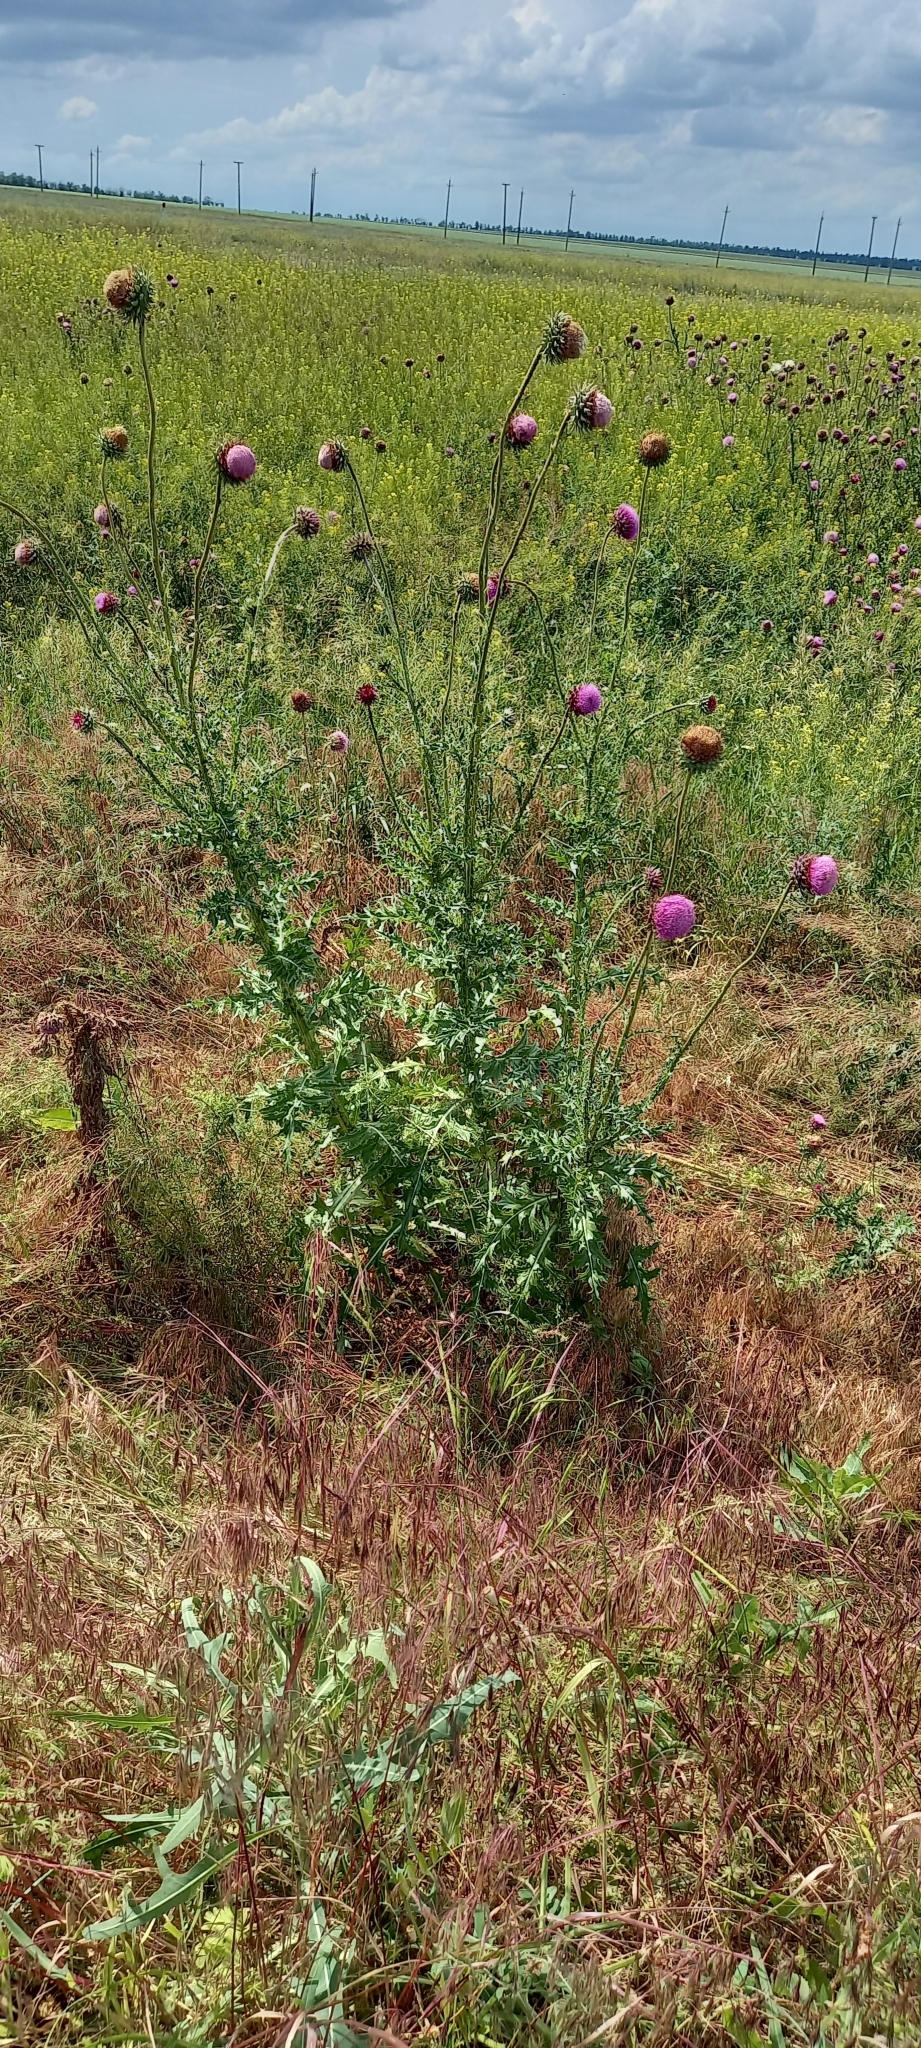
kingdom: Plantae
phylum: Tracheophyta
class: Magnoliopsida
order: Asterales
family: Asteraceae
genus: Carduus
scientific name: Carduus nutans
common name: Musk thistle
